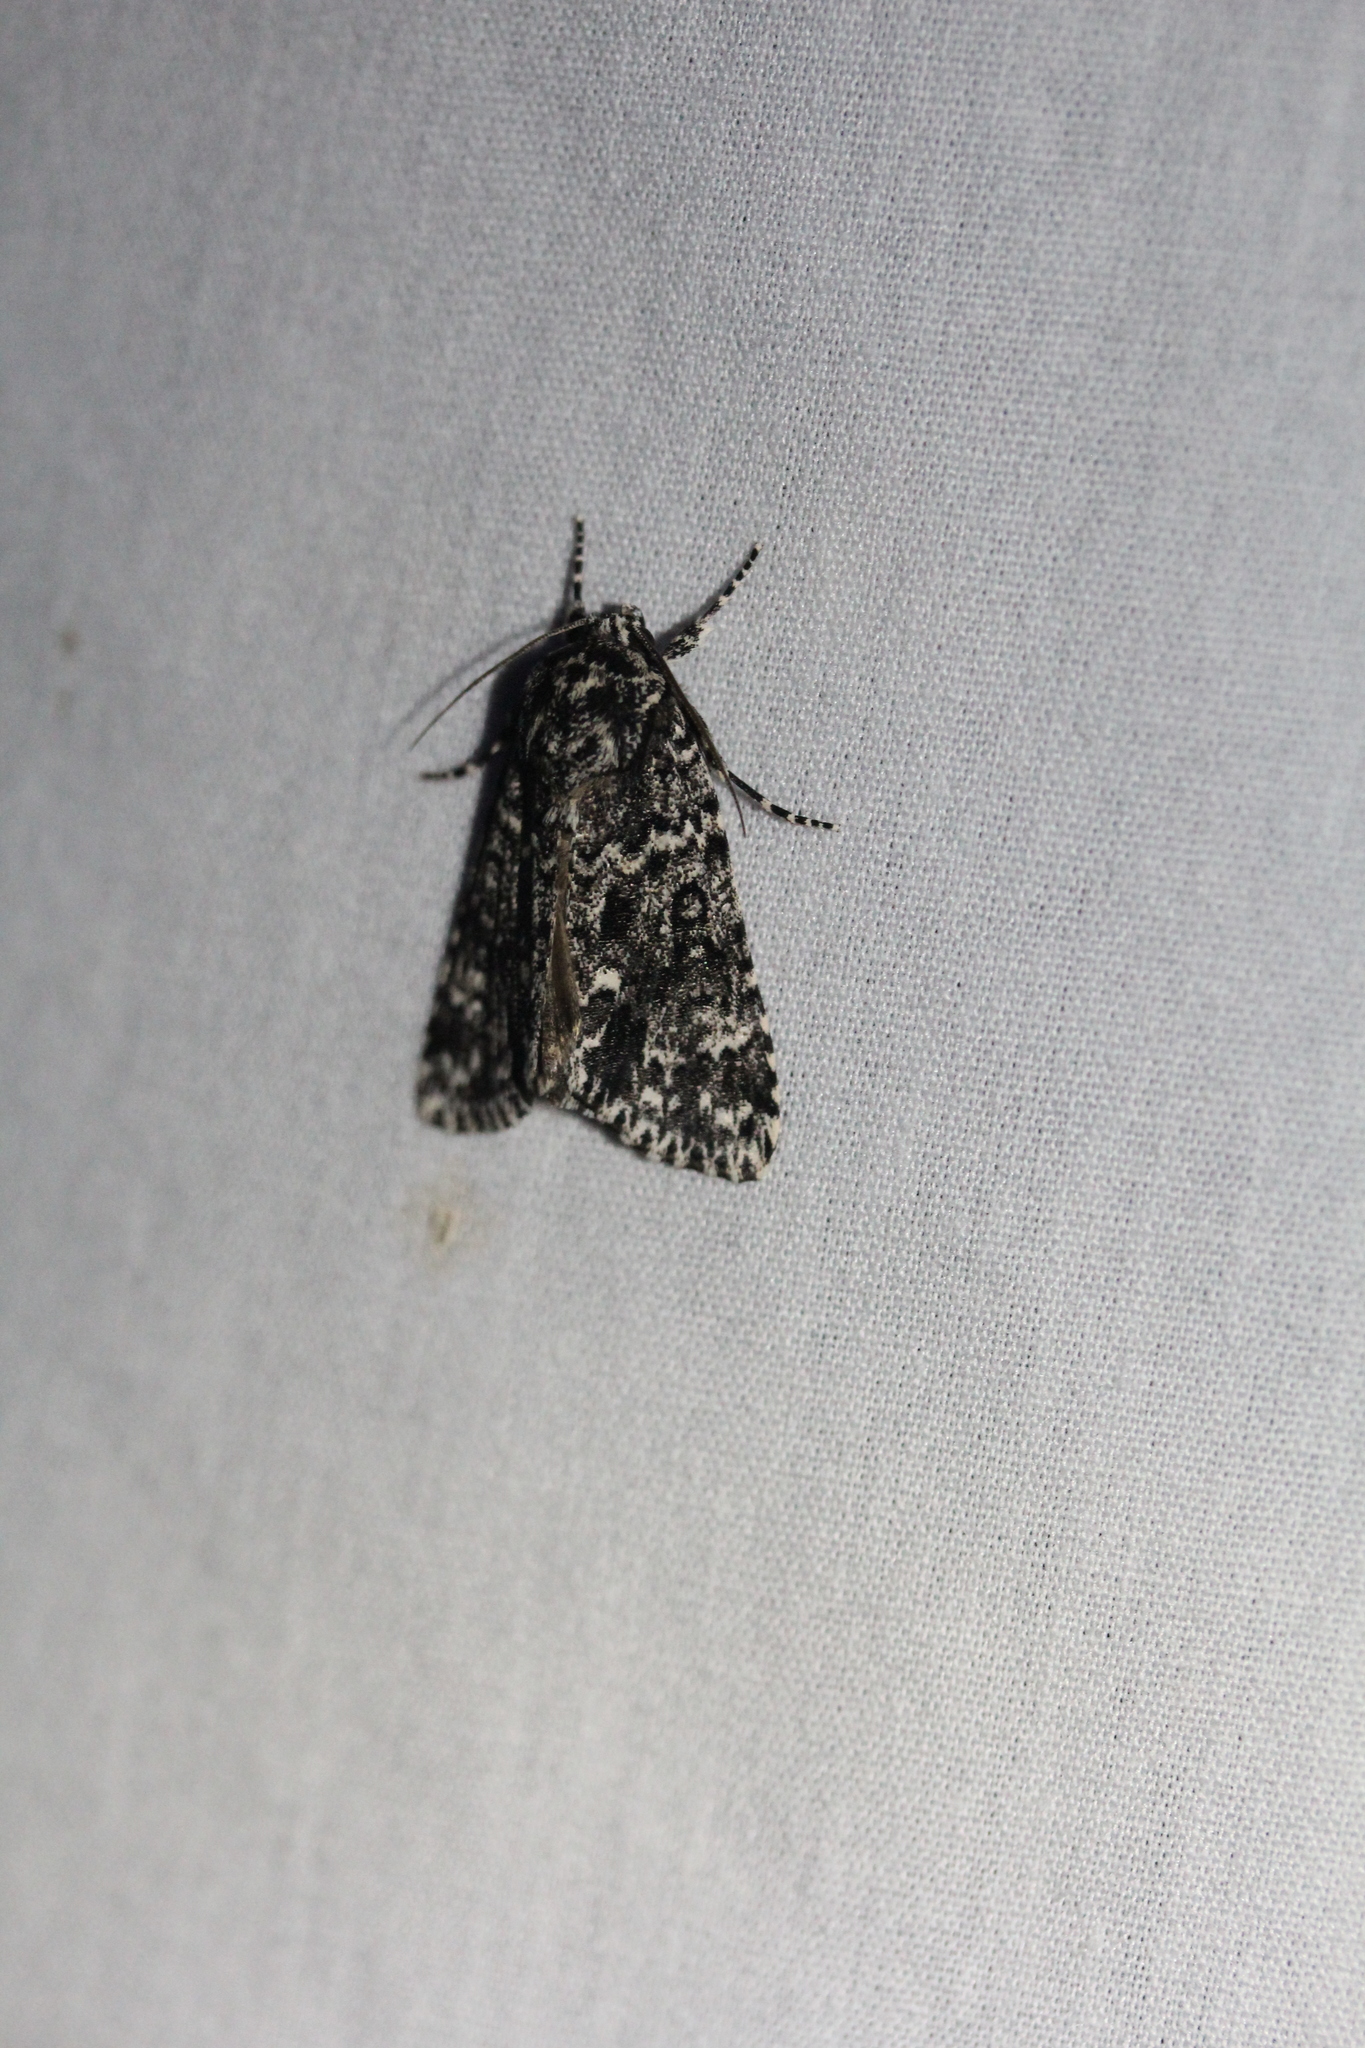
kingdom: Animalia
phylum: Arthropoda
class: Insecta
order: Lepidoptera
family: Noctuidae
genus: Acronicta
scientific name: Acronicta noctivaga
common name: Night-wandering dagger
